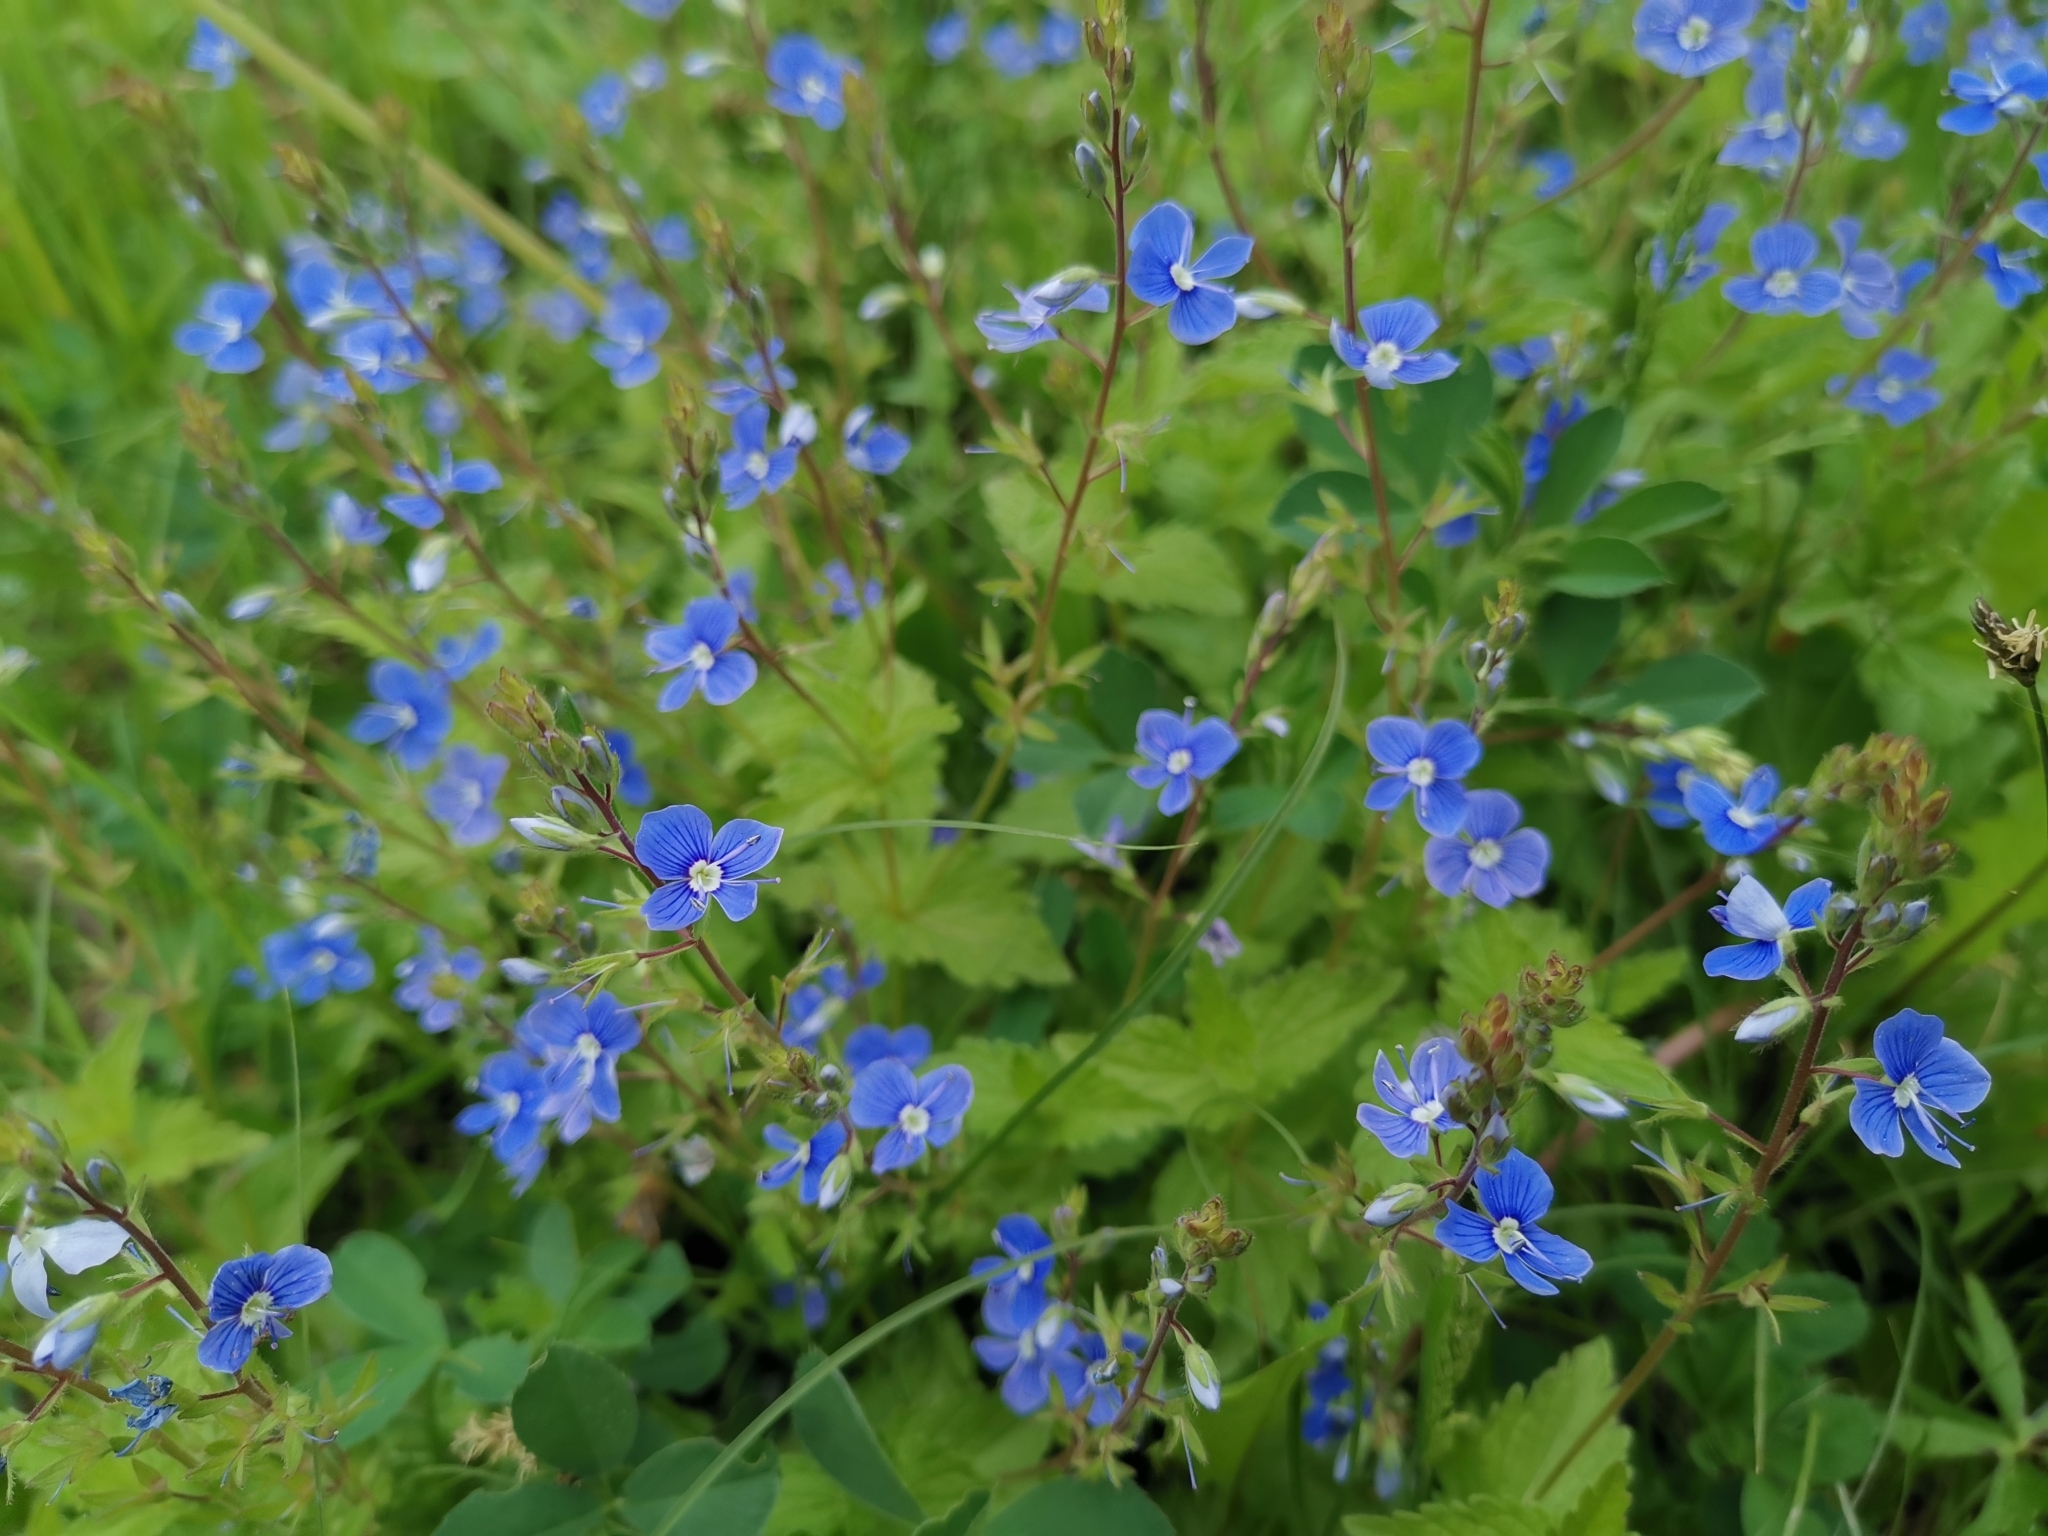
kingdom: Plantae
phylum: Tracheophyta
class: Magnoliopsida
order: Lamiales
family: Plantaginaceae
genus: Veronica
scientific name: Veronica chamaedrys
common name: Germander speedwell
